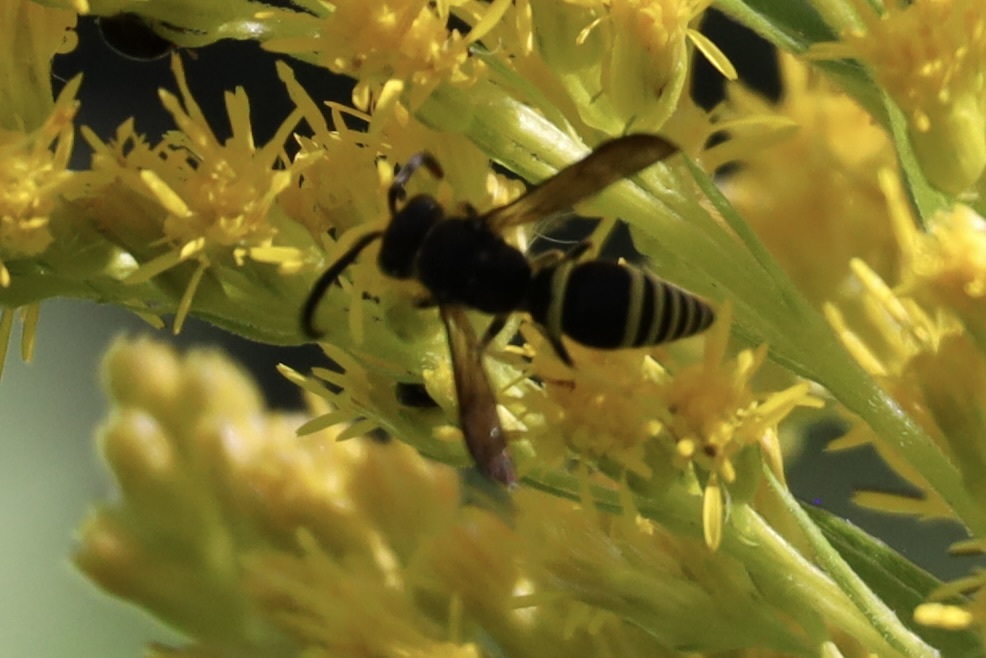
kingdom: Animalia
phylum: Arthropoda
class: Insecta
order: Hymenoptera
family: Vespidae
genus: Ancistrocerus
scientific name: Ancistrocerus
